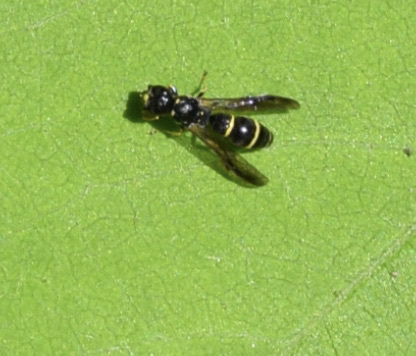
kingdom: Animalia
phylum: Arthropoda
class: Insecta
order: Hymenoptera
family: Eumenidae
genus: Symmorphus
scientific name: Symmorphus
